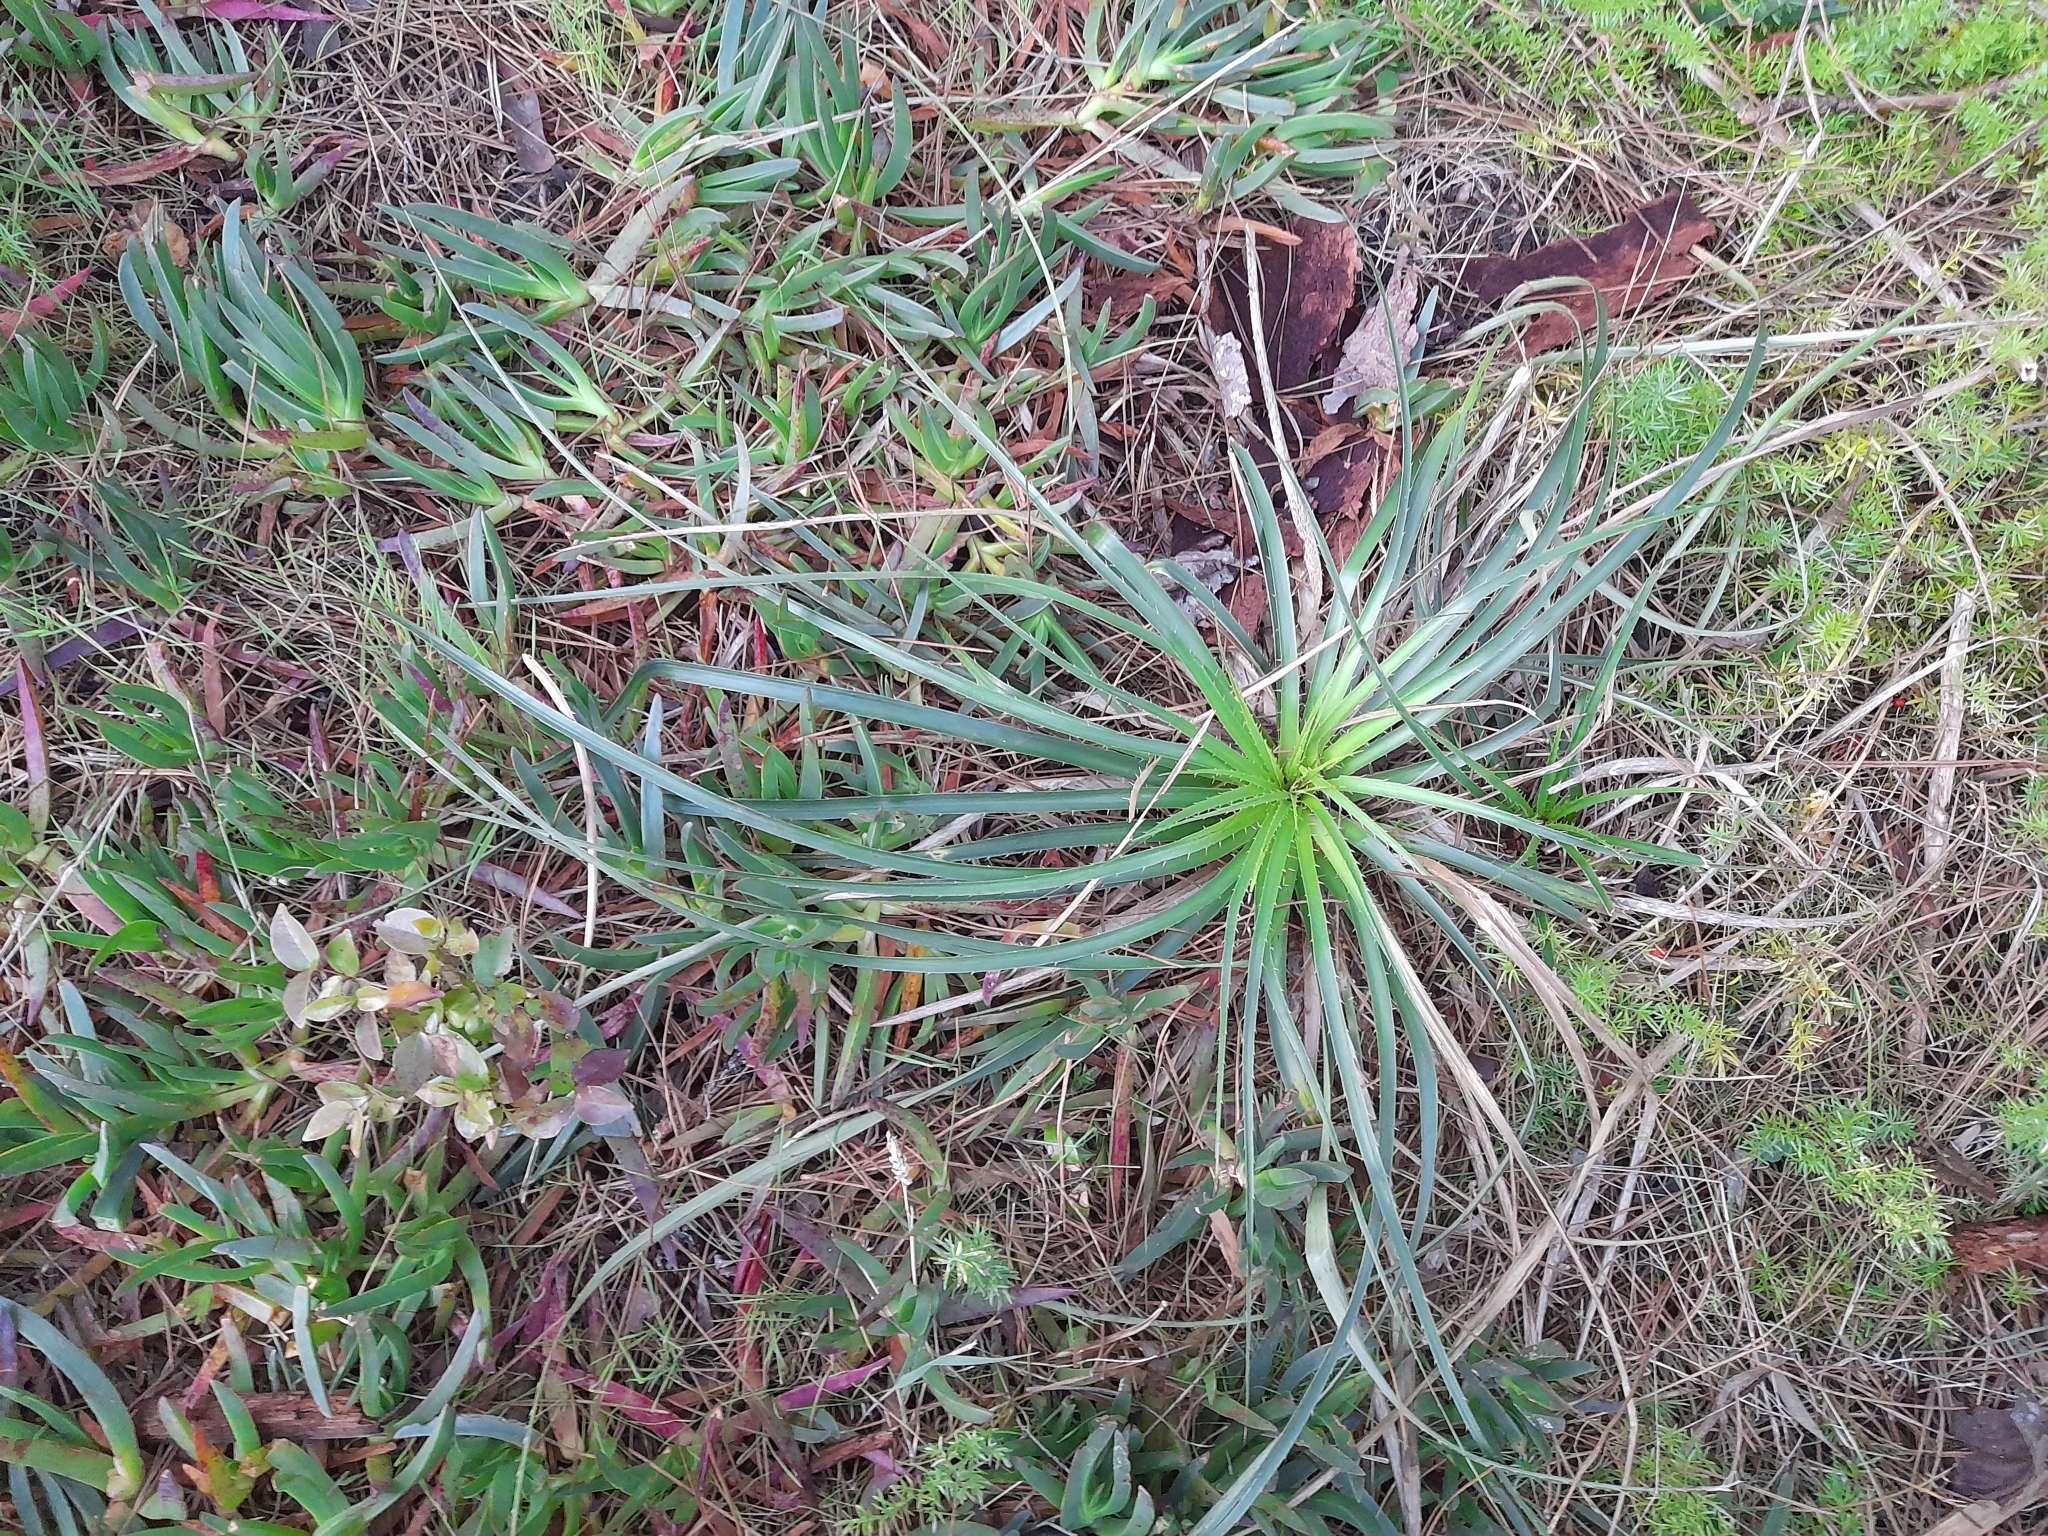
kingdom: Plantae
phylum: Tracheophyta
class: Magnoliopsida
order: Apiales
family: Apiaceae
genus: Eryngium
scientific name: Eryngium horridum
